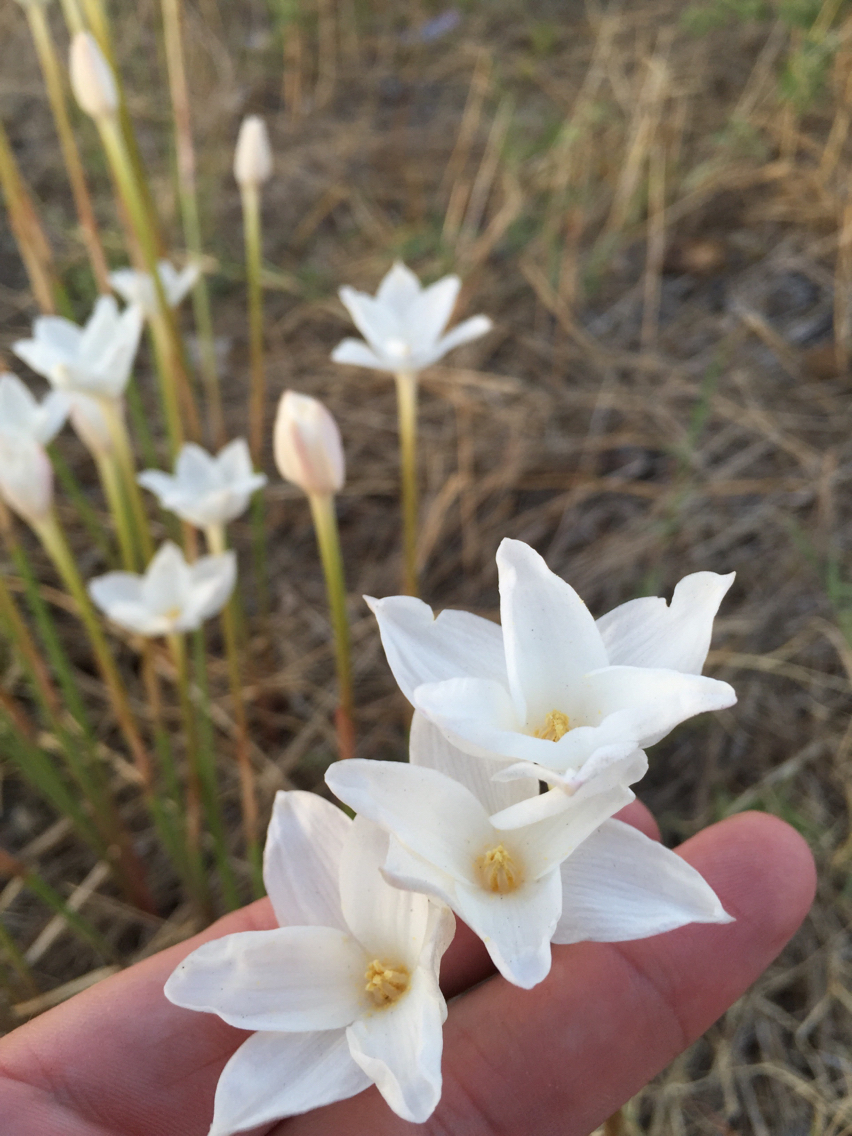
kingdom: Plantae
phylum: Tracheophyta
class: Liliopsida
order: Asparagales
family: Amaryllidaceae
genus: Zephyranthes
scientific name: Zephyranthes chlorosolen
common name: Evening rain-lily
